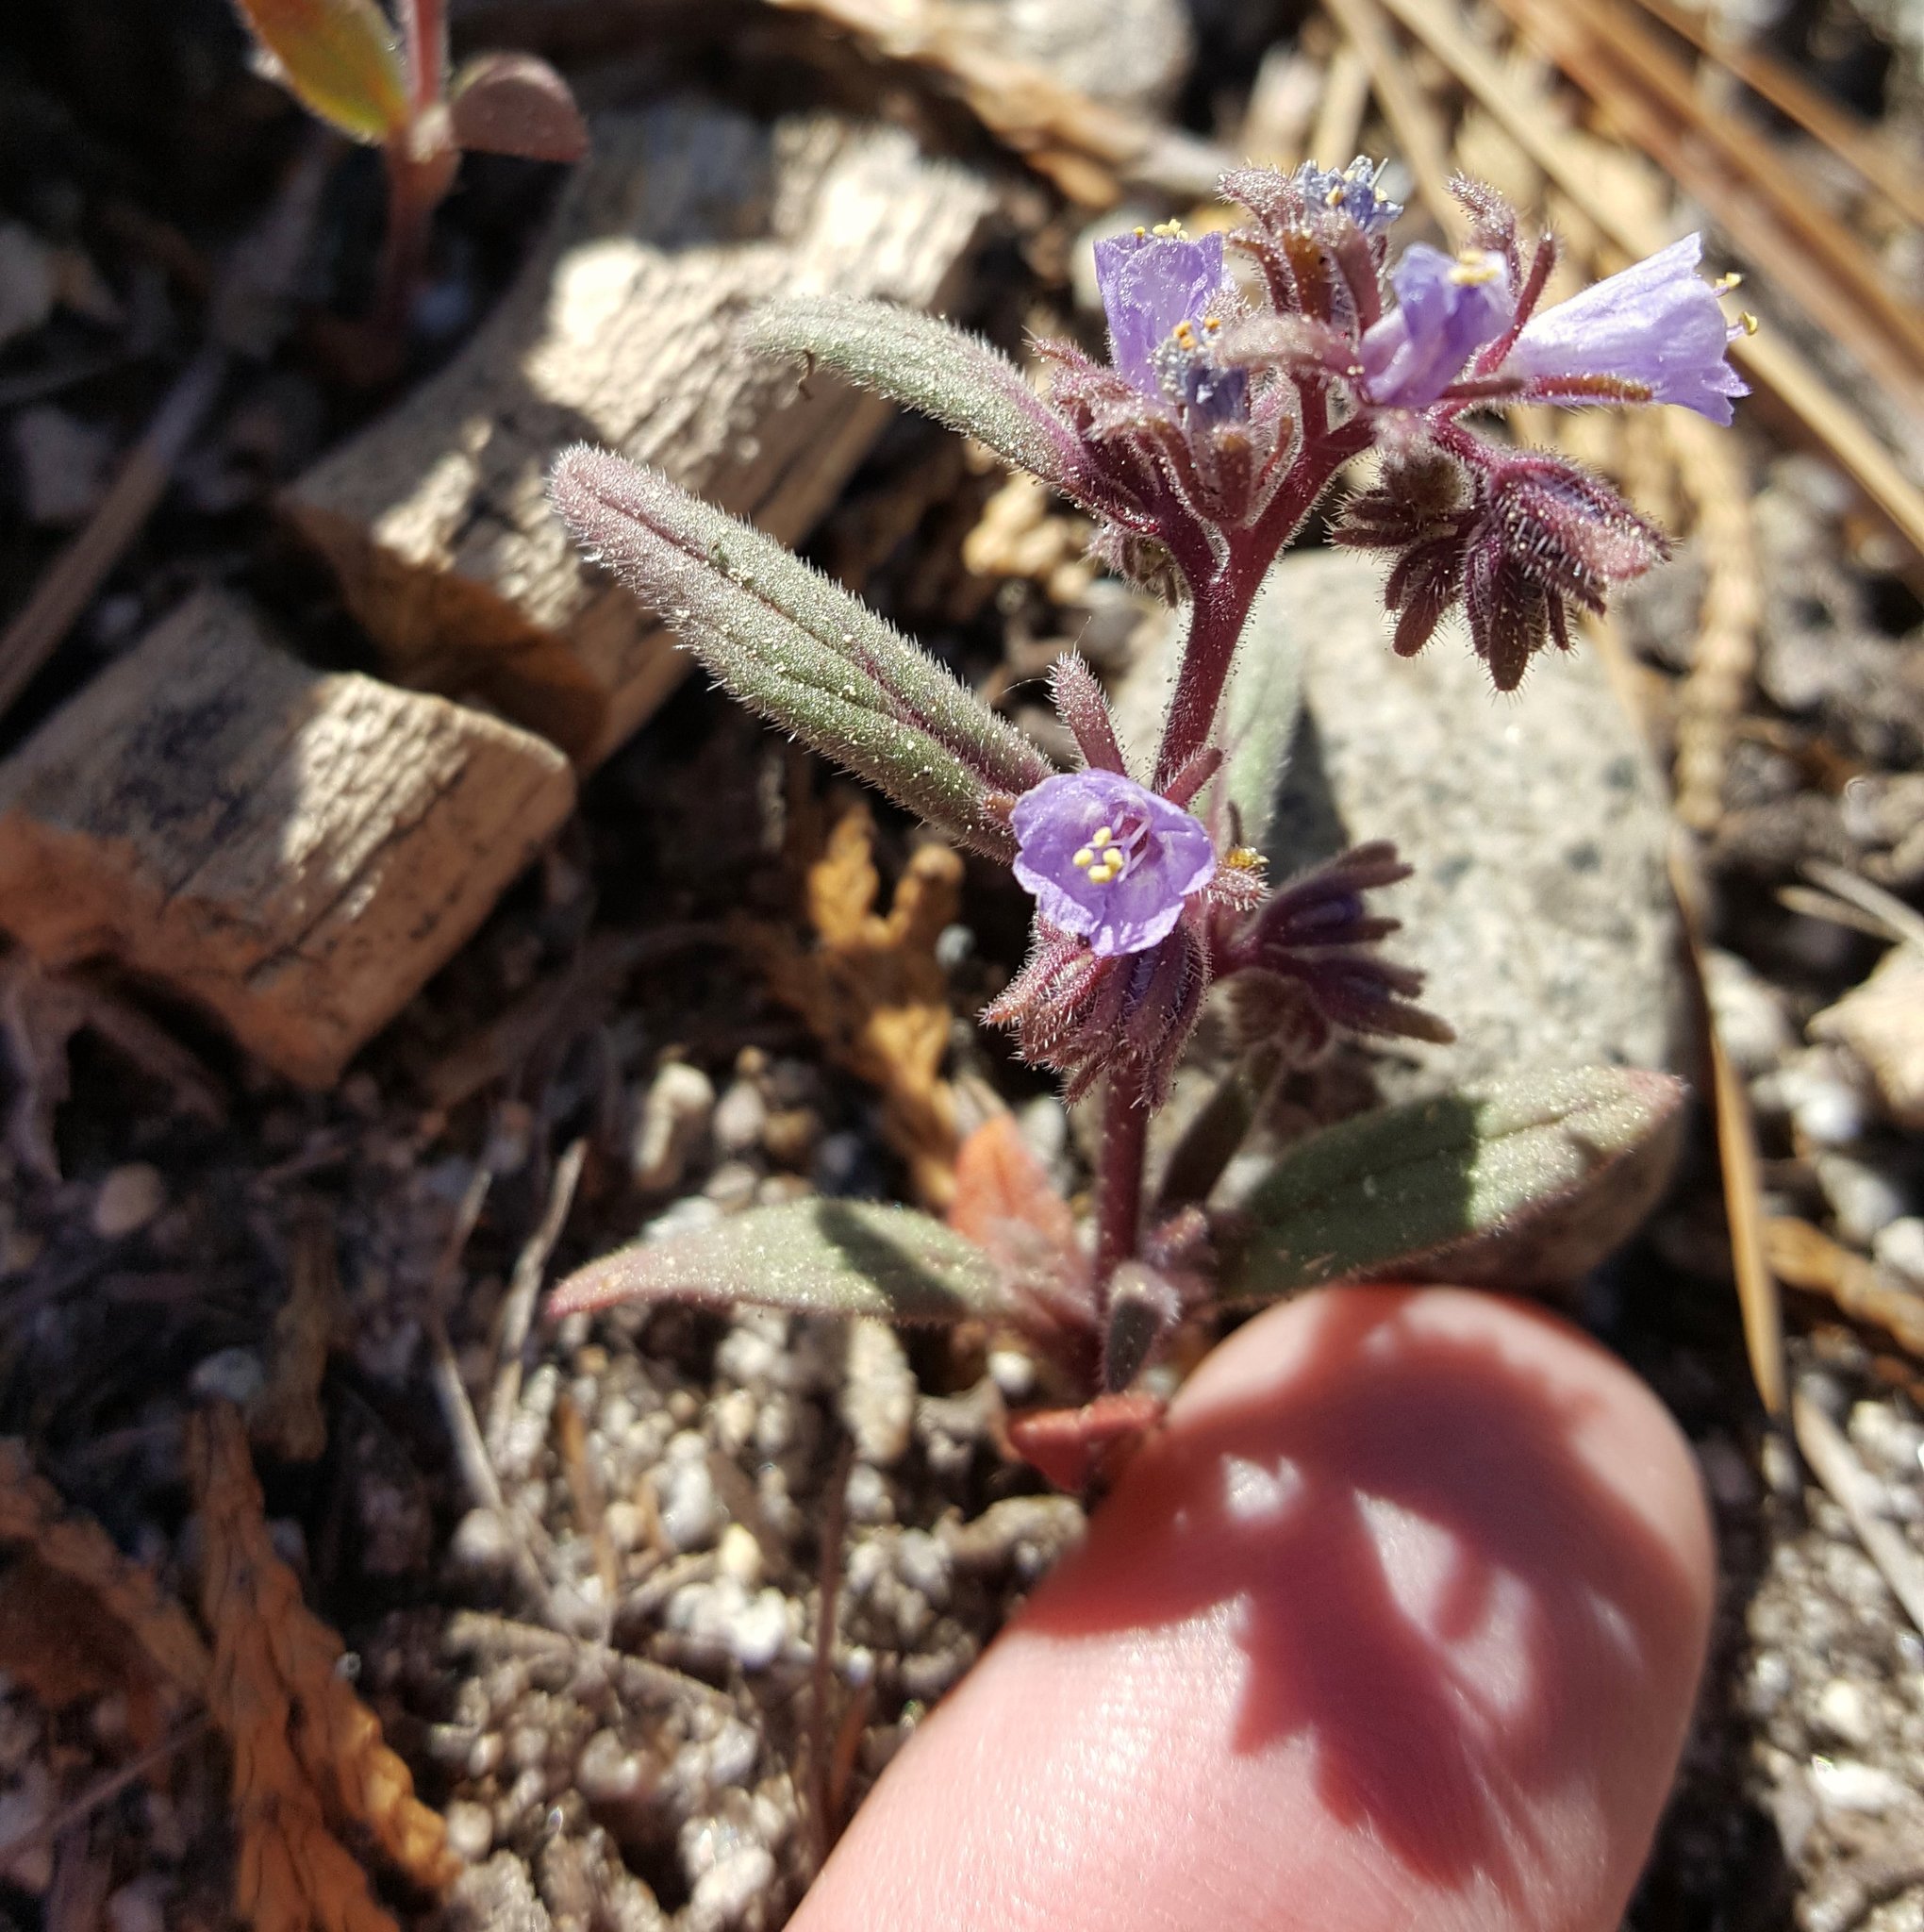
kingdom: Plantae
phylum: Tracheophyta
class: Magnoliopsida
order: Boraginales
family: Hydrophyllaceae
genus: Phacelia
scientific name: Phacelia quickii
